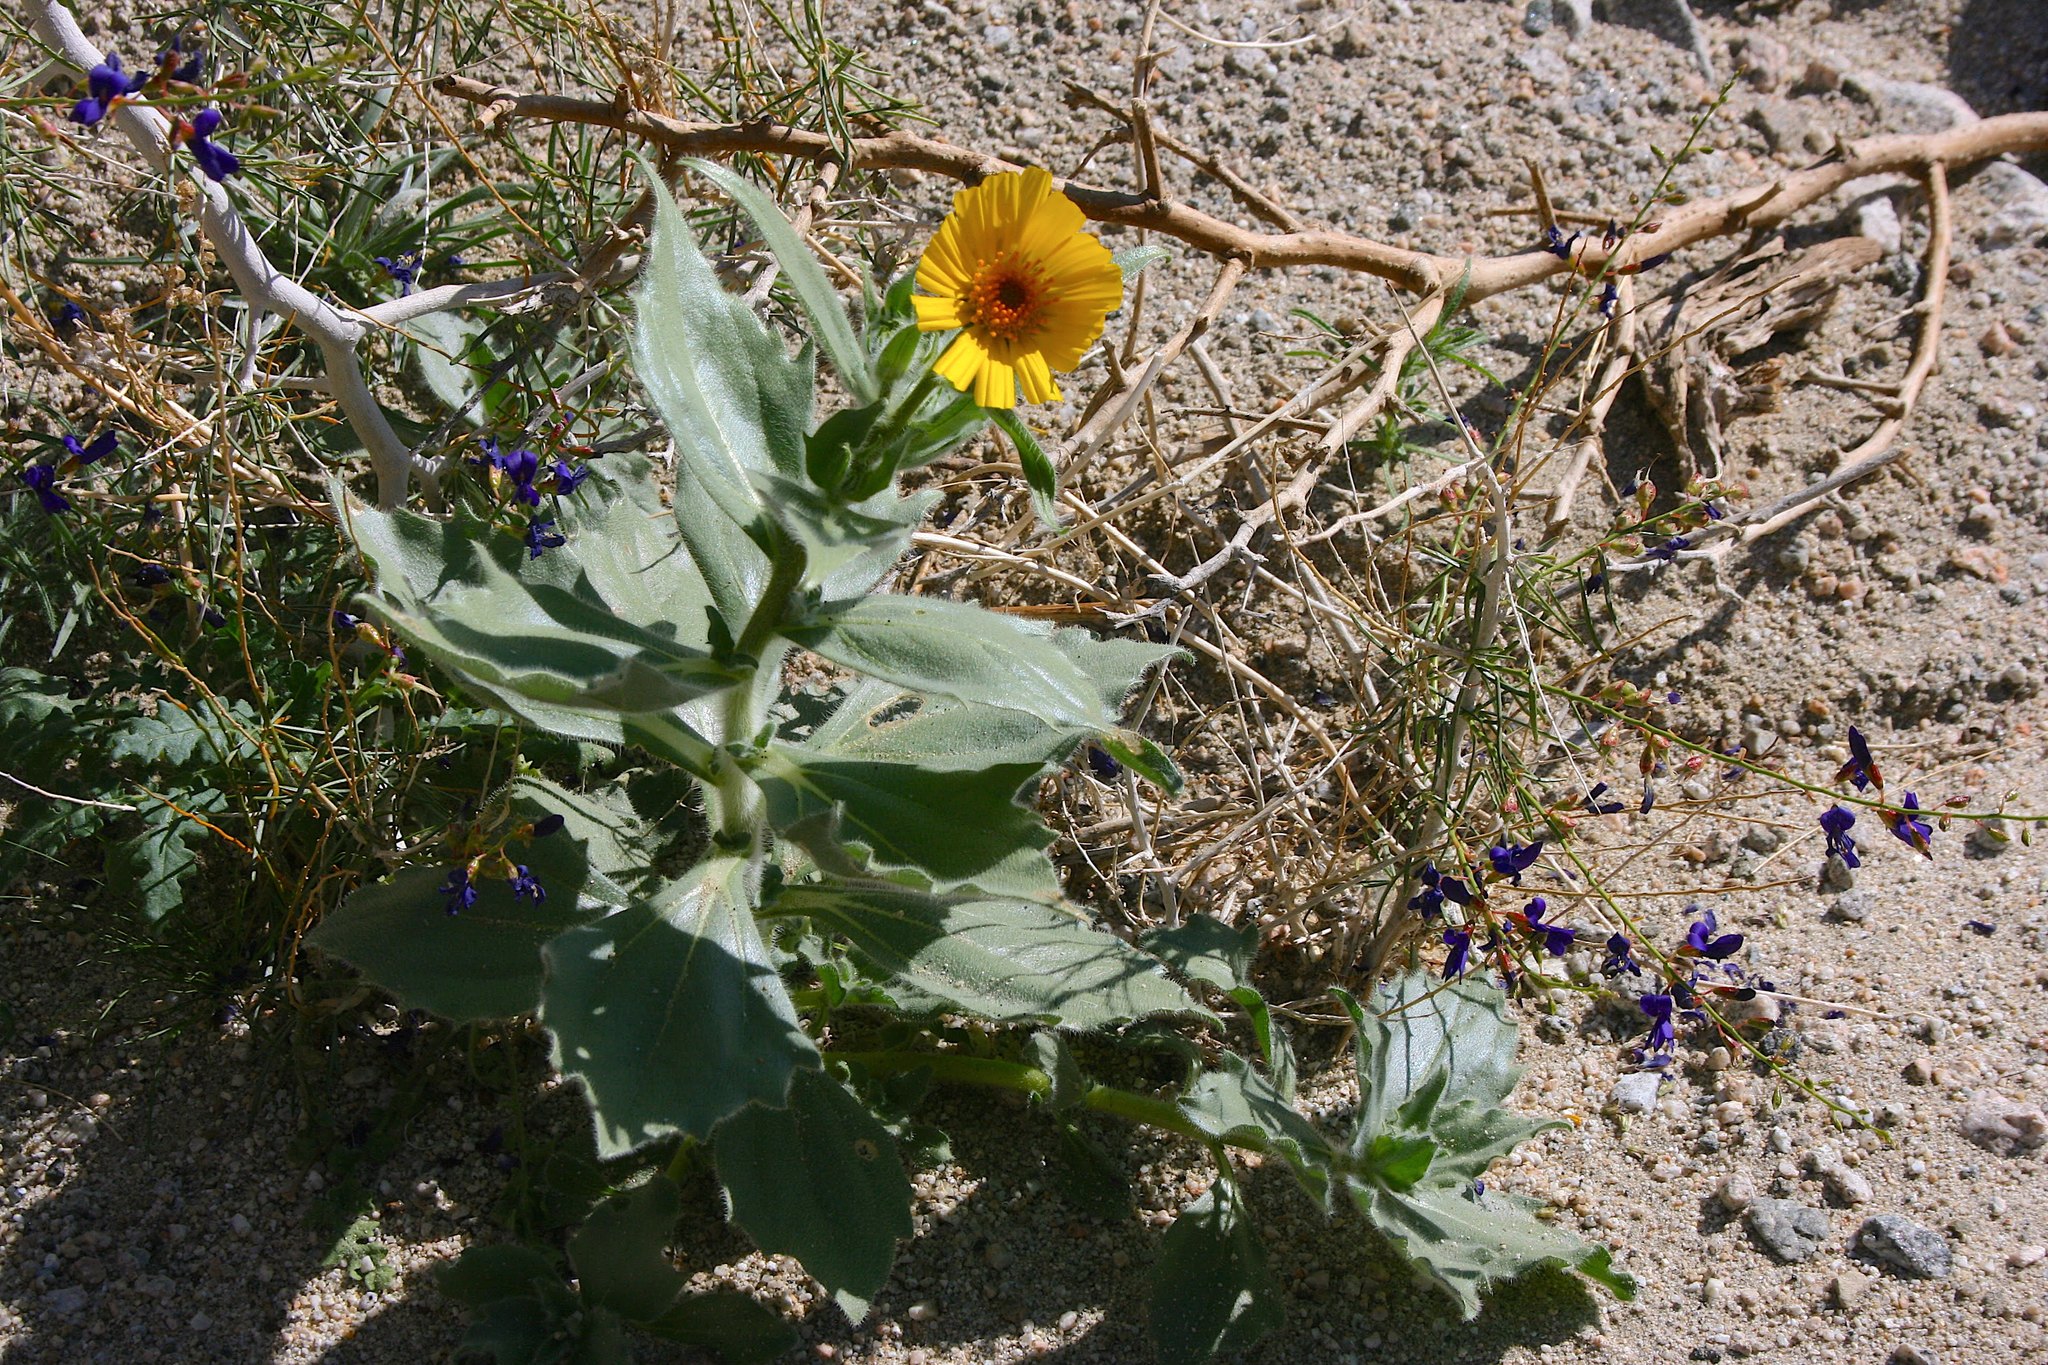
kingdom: Plantae
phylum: Tracheophyta
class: Magnoliopsida
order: Asterales
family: Asteraceae
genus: Geraea
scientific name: Geraea canescens
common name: Desert-gold
